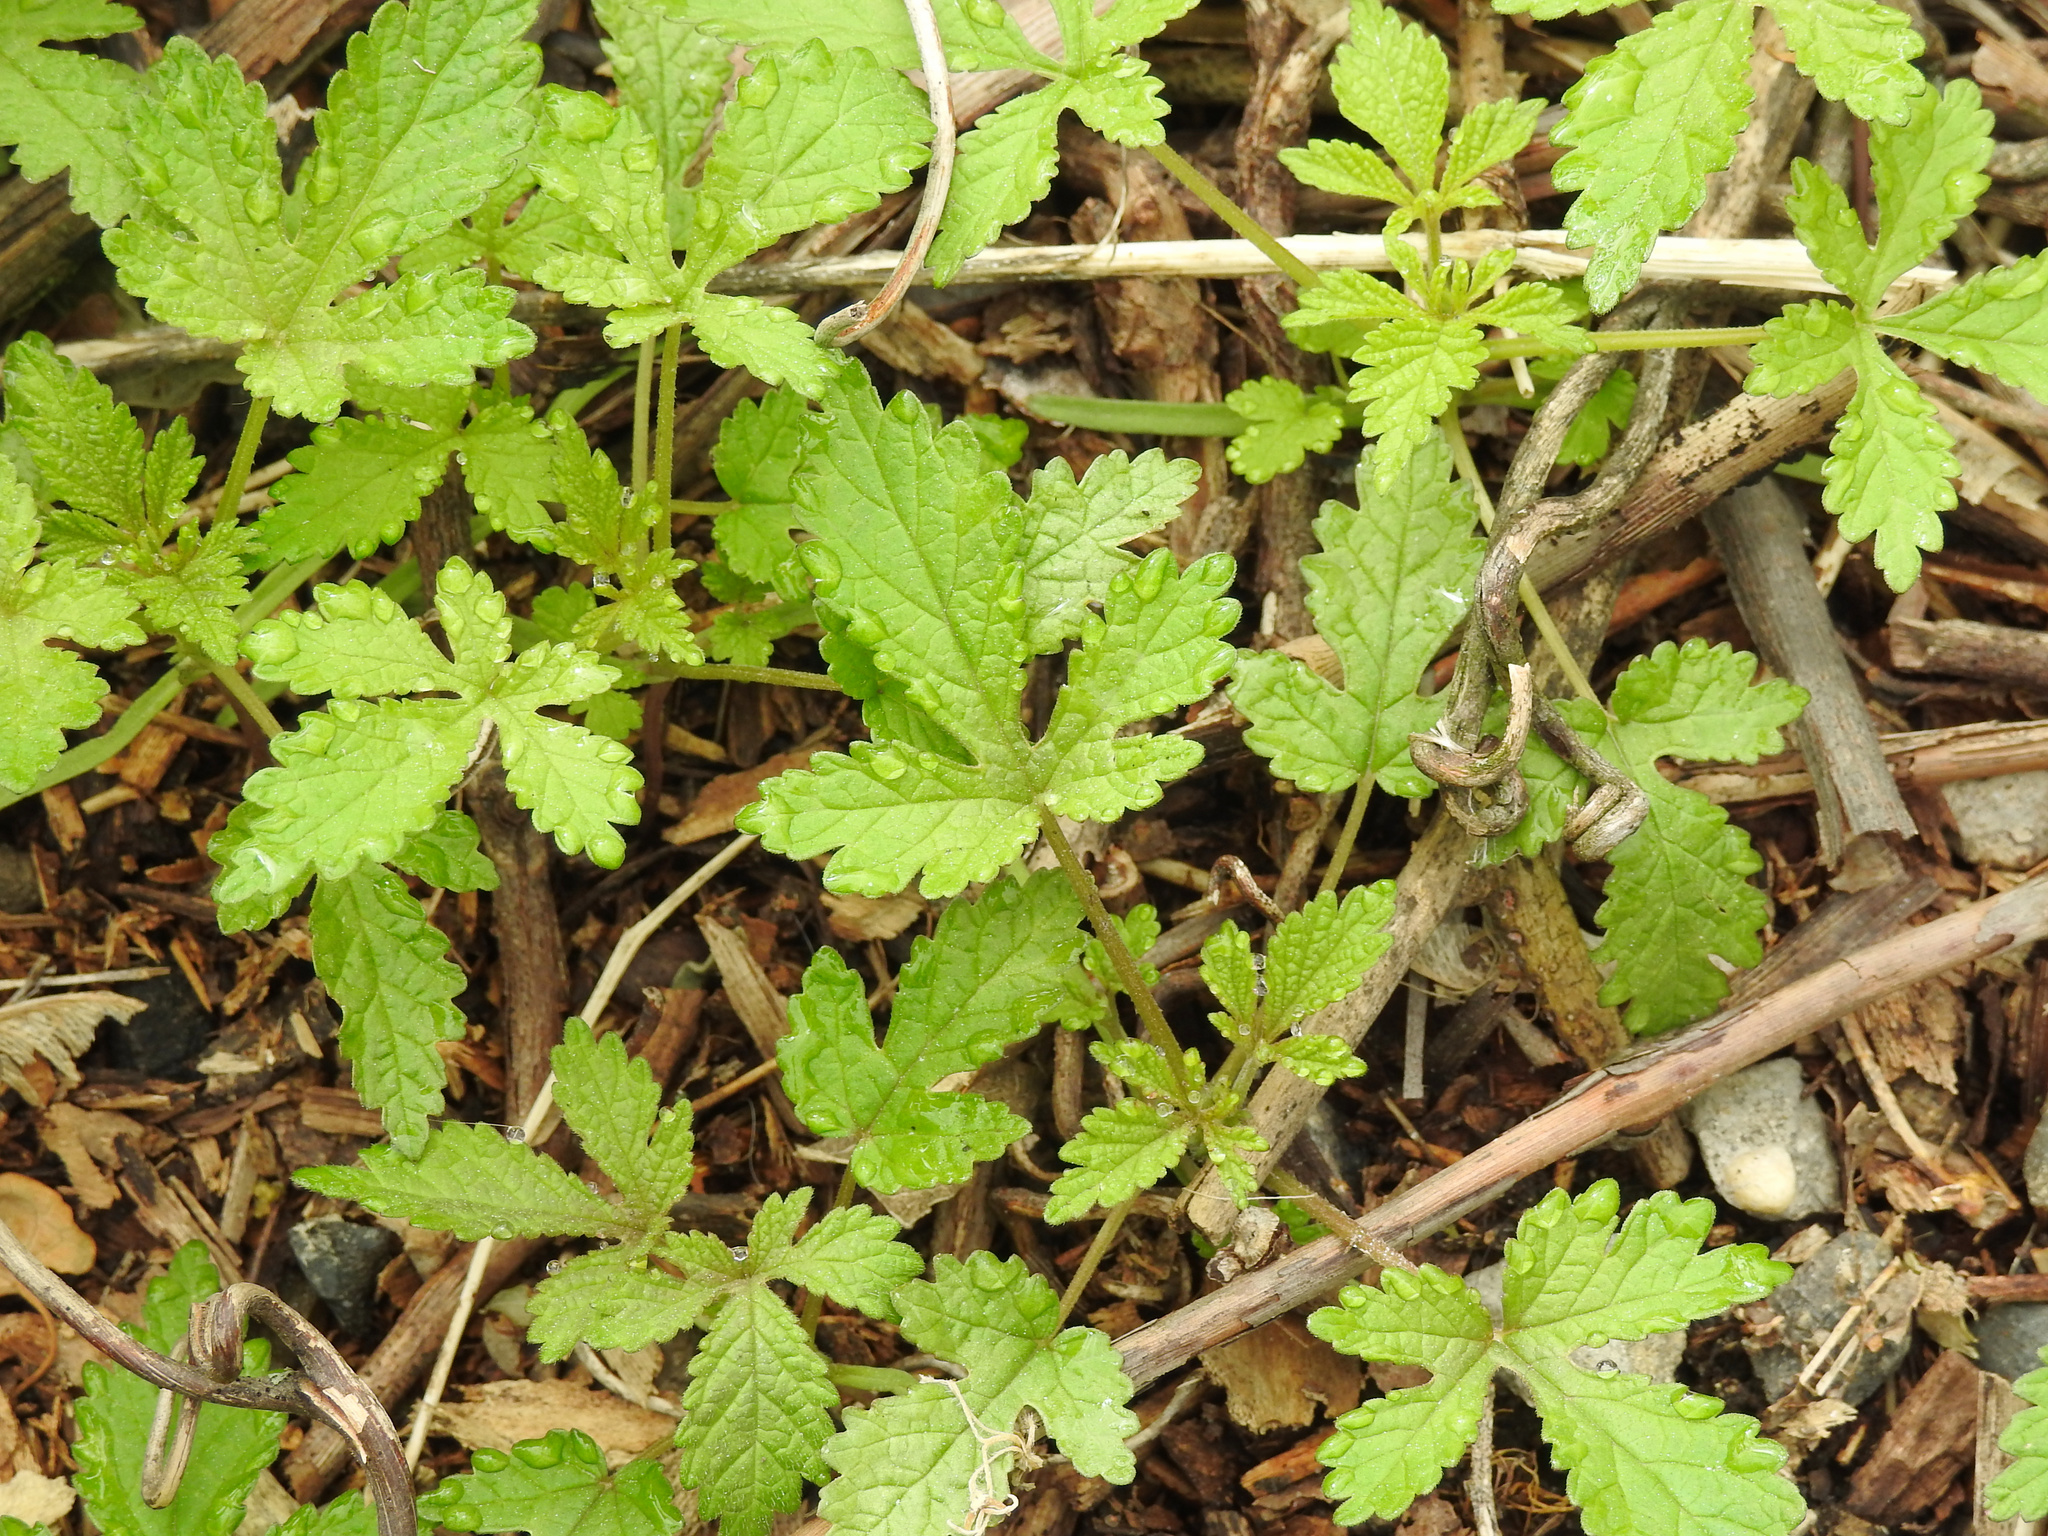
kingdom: Plantae
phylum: Tracheophyta
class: Magnoliopsida
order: Rosales
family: Cannabaceae
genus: Humulus
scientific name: Humulus scandens
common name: Japanese hop
